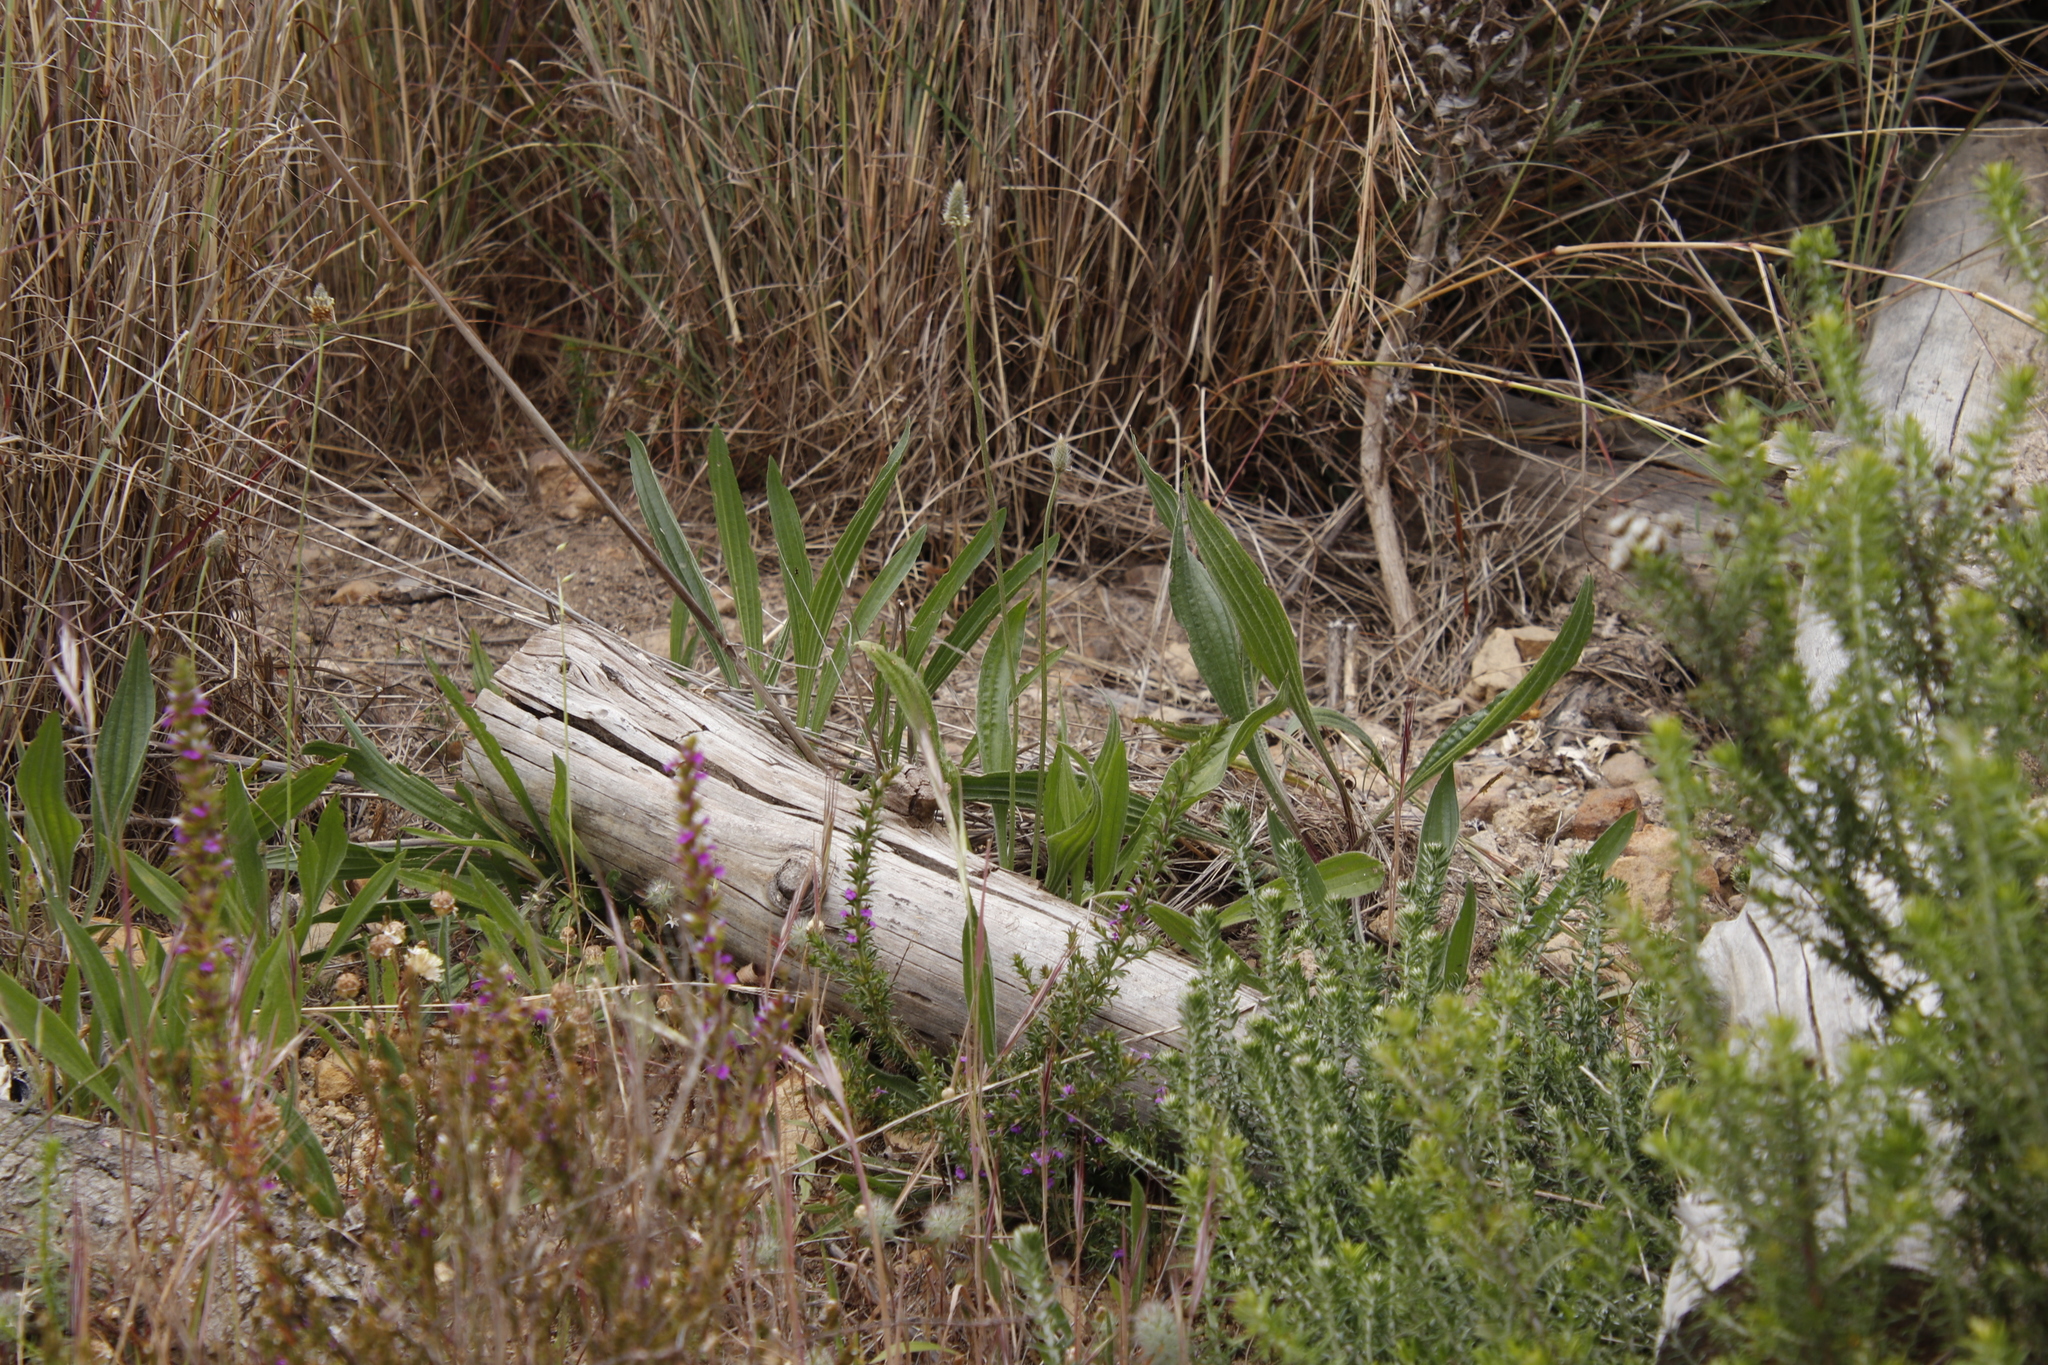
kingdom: Plantae
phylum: Tracheophyta
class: Magnoliopsida
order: Lamiales
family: Plantaginaceae
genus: Plantago
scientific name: Plantago lanceolata
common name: Ribwort plantain
